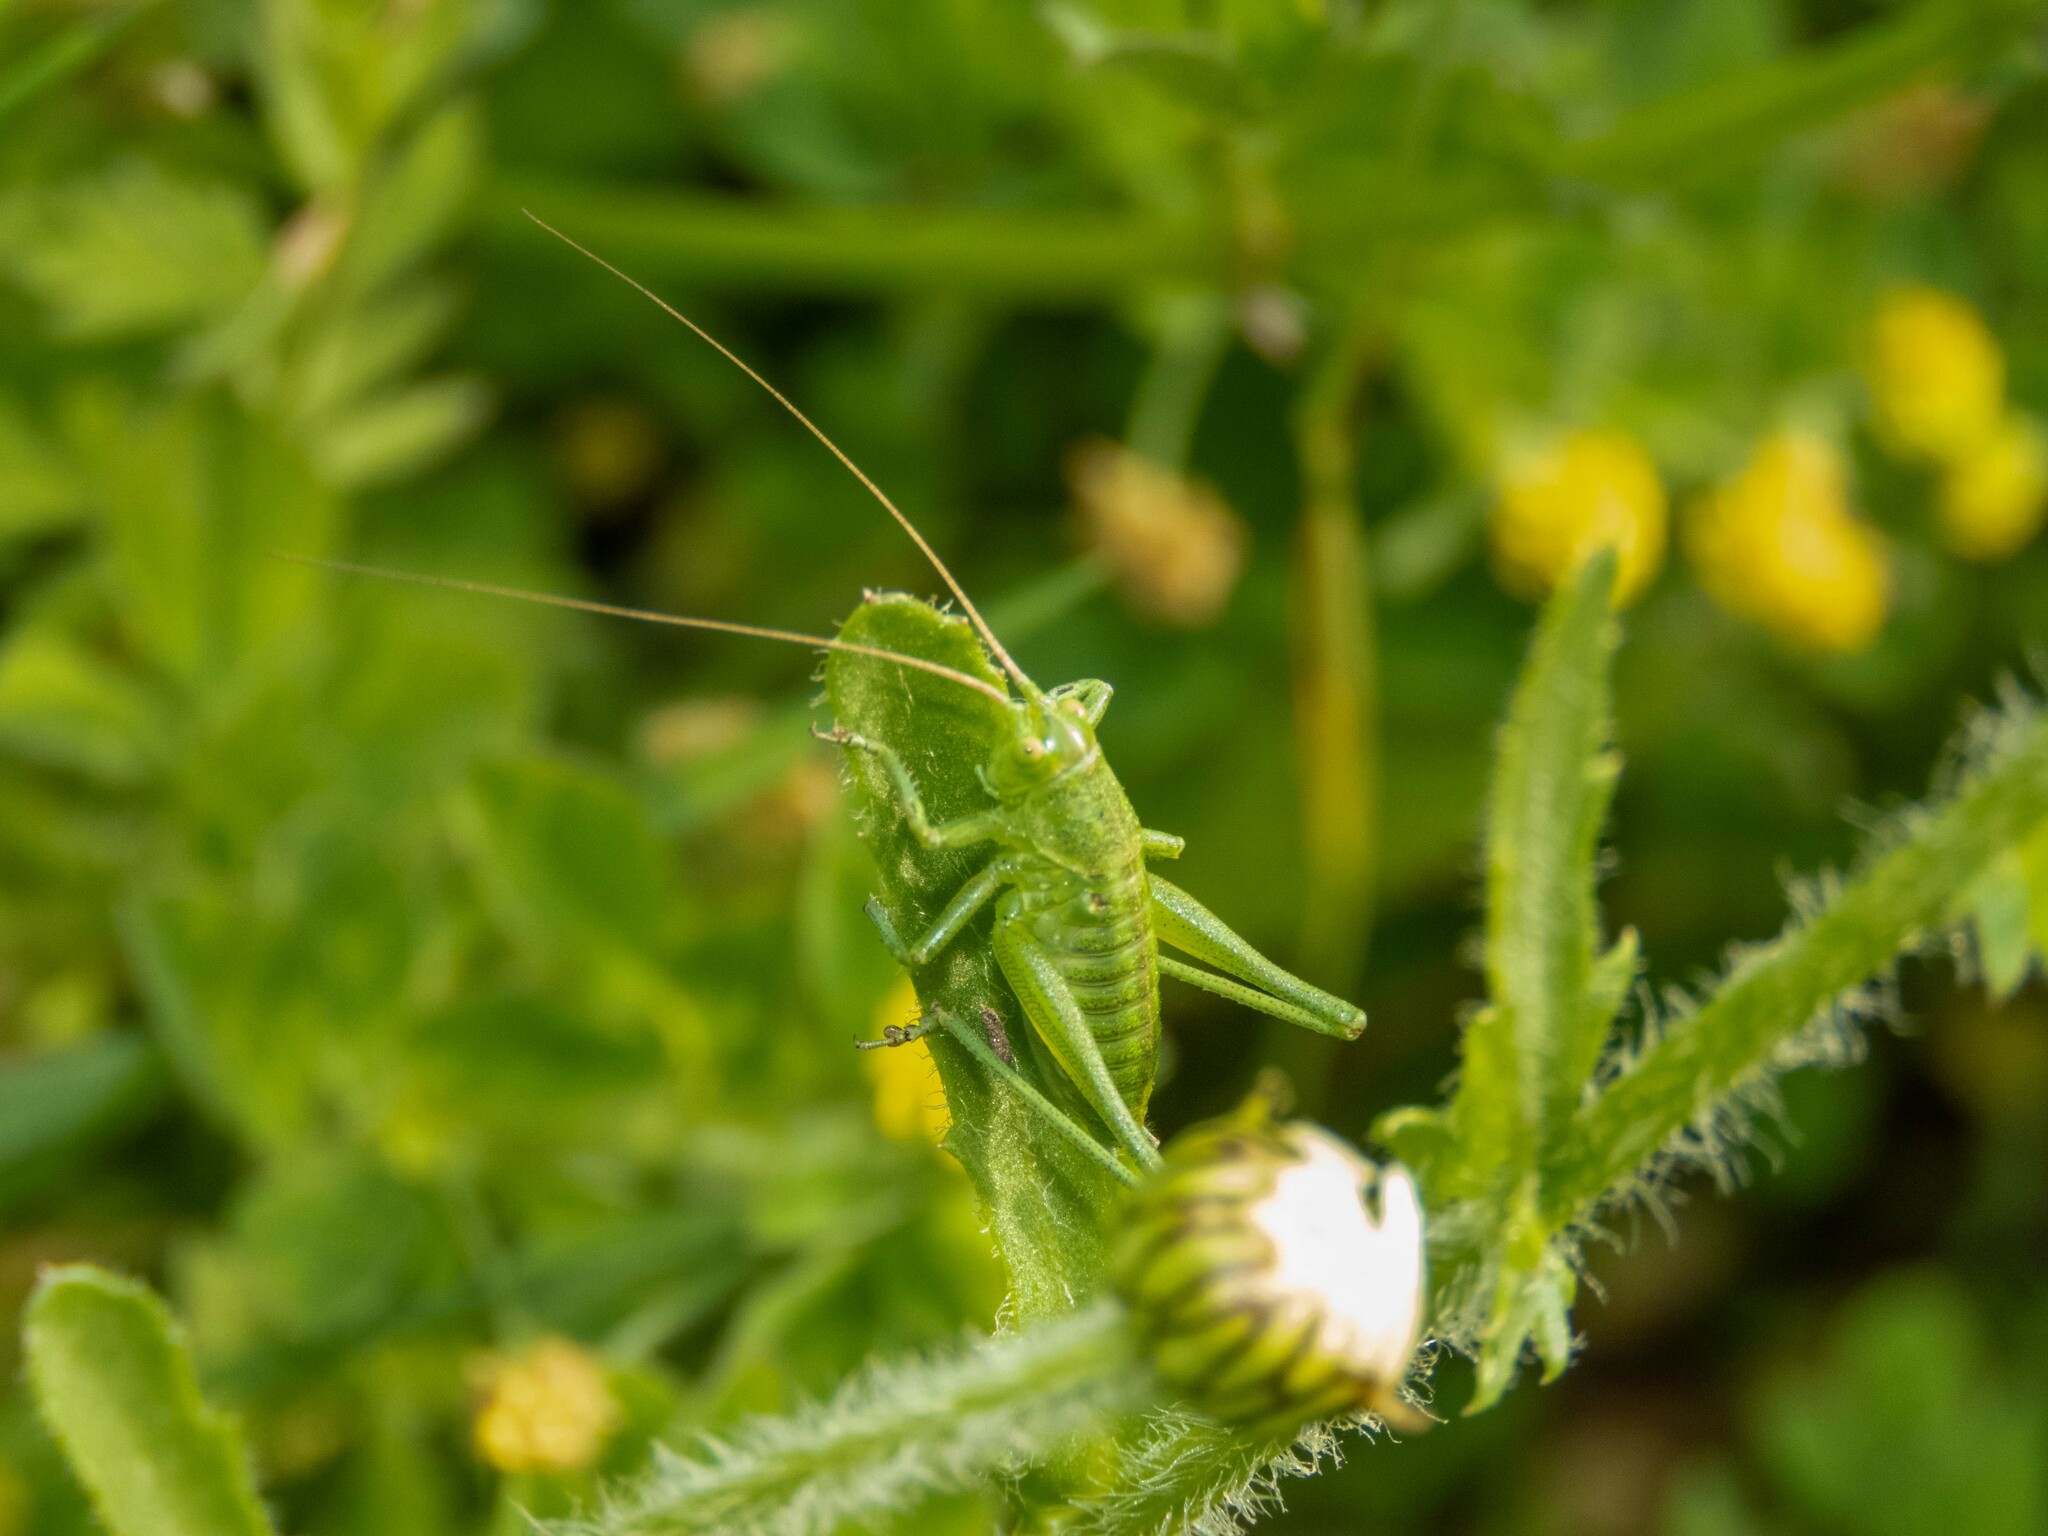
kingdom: Animalia
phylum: Arthropoda
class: Insecta
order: Orthoptera
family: Tettigoniidae
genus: Tettigonia
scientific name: Tettigonia viridissima
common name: Great green bush-cricket
